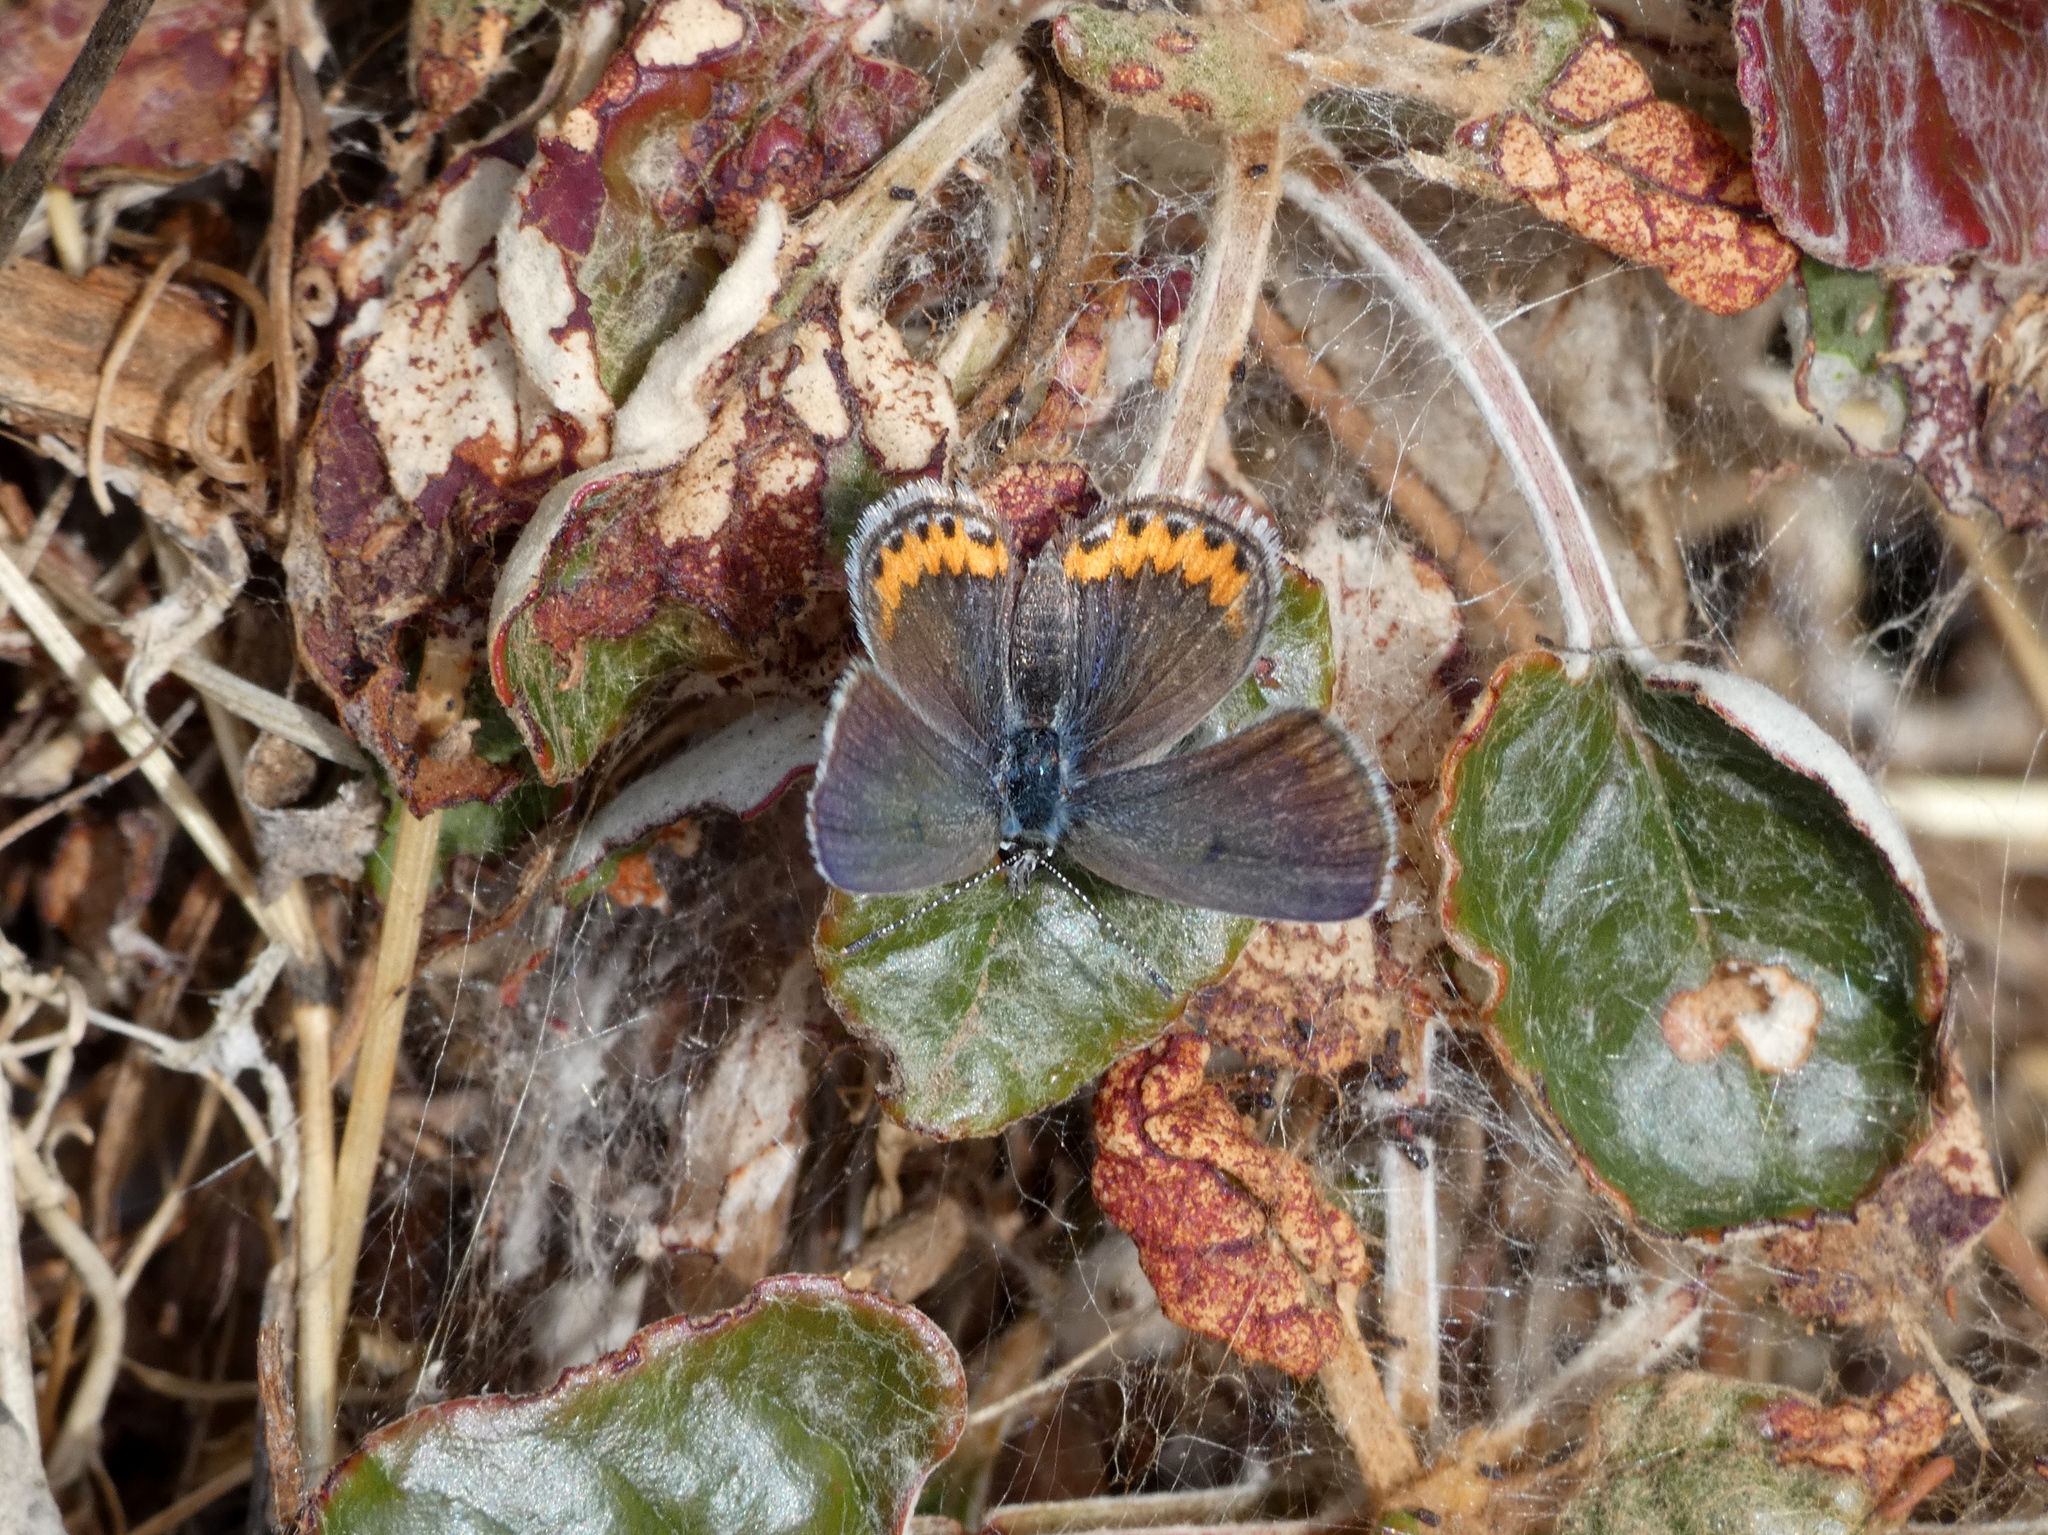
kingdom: Animalia
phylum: Arthropoda
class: Insecta
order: Lepidoptera
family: Lycaenidae
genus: Icaricia
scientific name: Icaricia acmon
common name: Acmon blue
